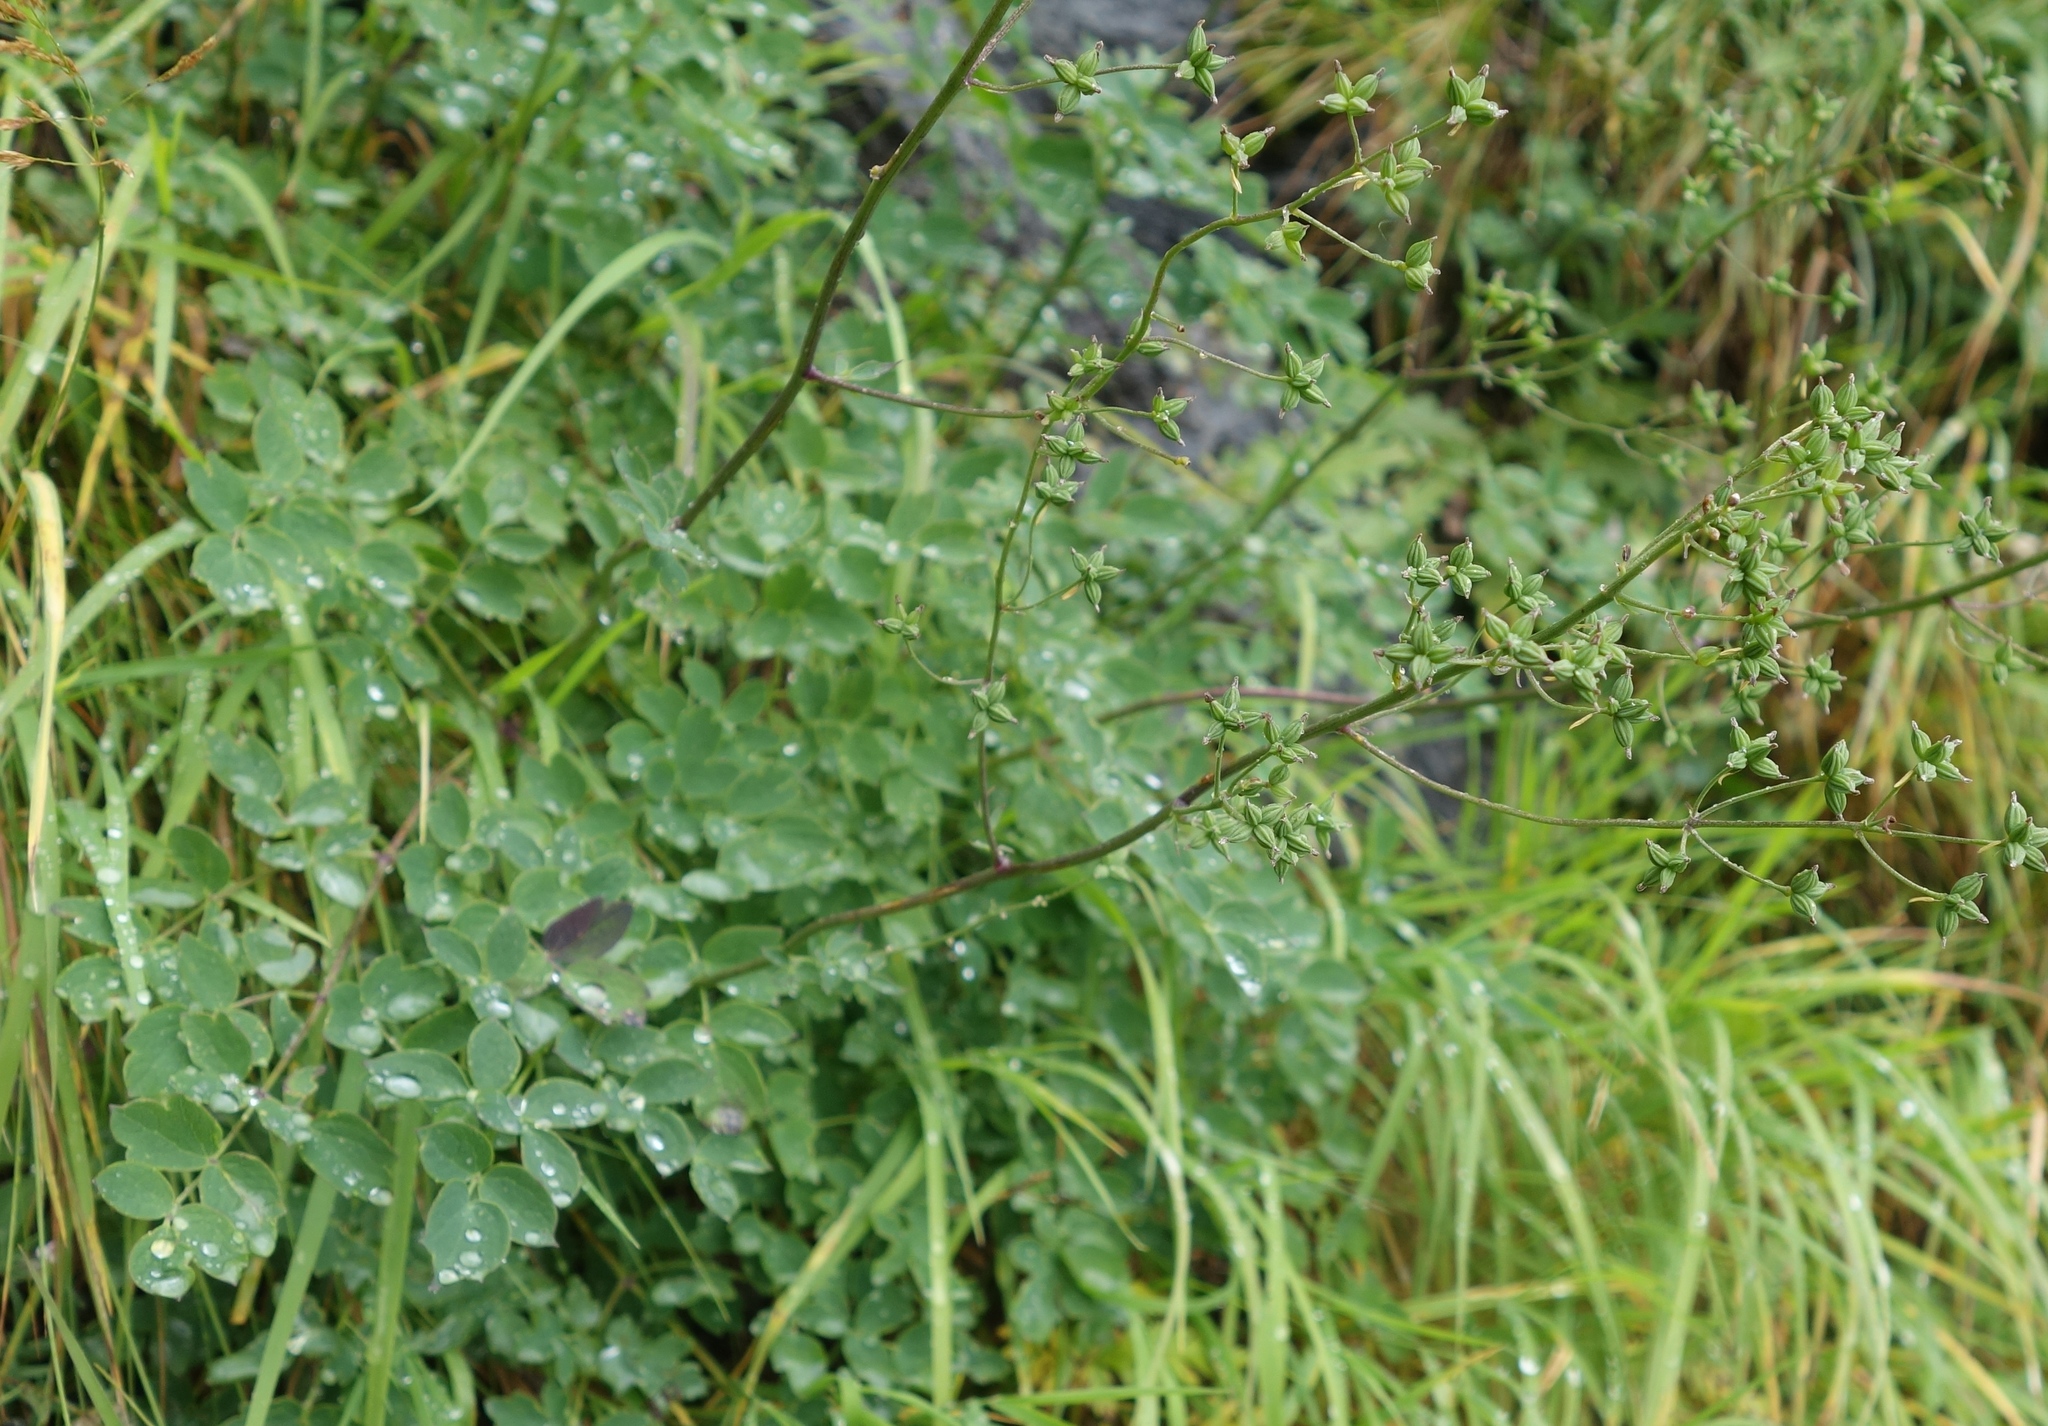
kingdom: Plantae
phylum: Tracheophyta
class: Magnoliopsida
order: Ranunculales
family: Ranunculaceae
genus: Thalictrum
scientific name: Thalictrum aquilegiifolium
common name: French meadow-rue
